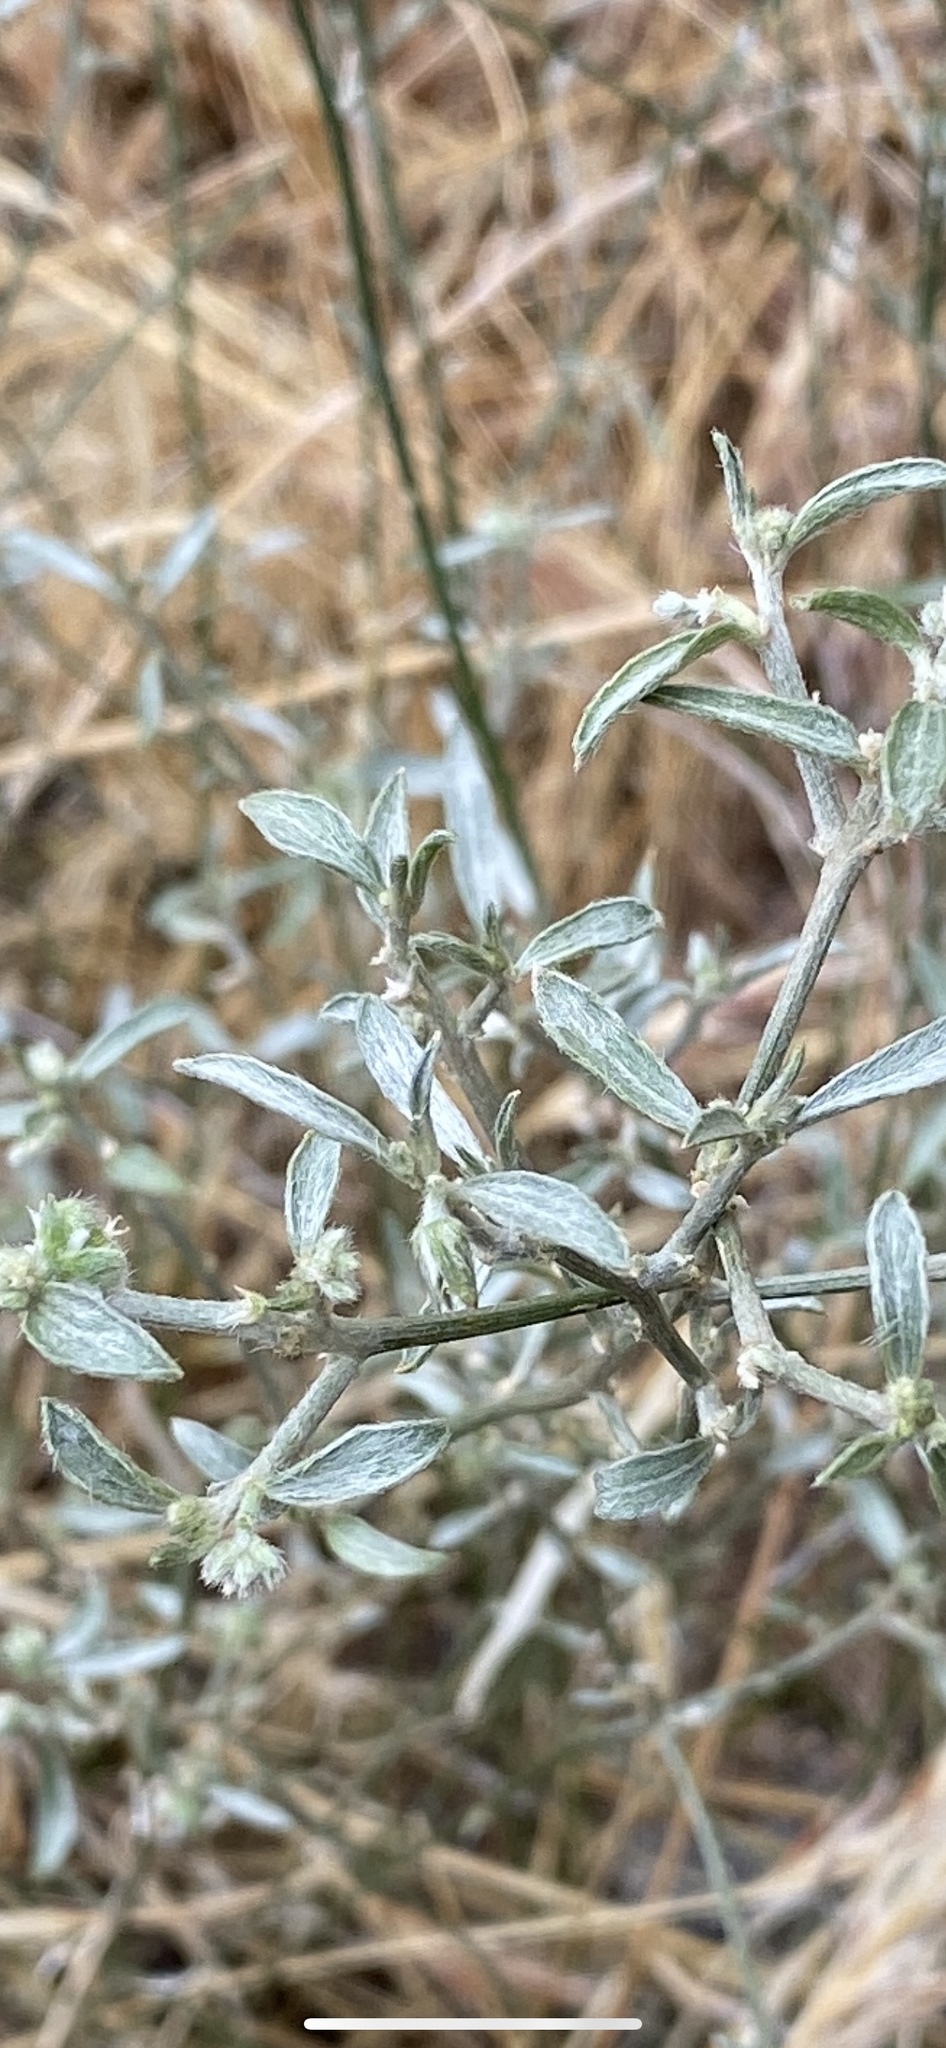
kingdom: Plantae
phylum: Tracheophyta
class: Magnoliopsida
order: Malpighiales
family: Euphorbiaceae
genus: Ditaxis
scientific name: Ditaxis lanceolata
